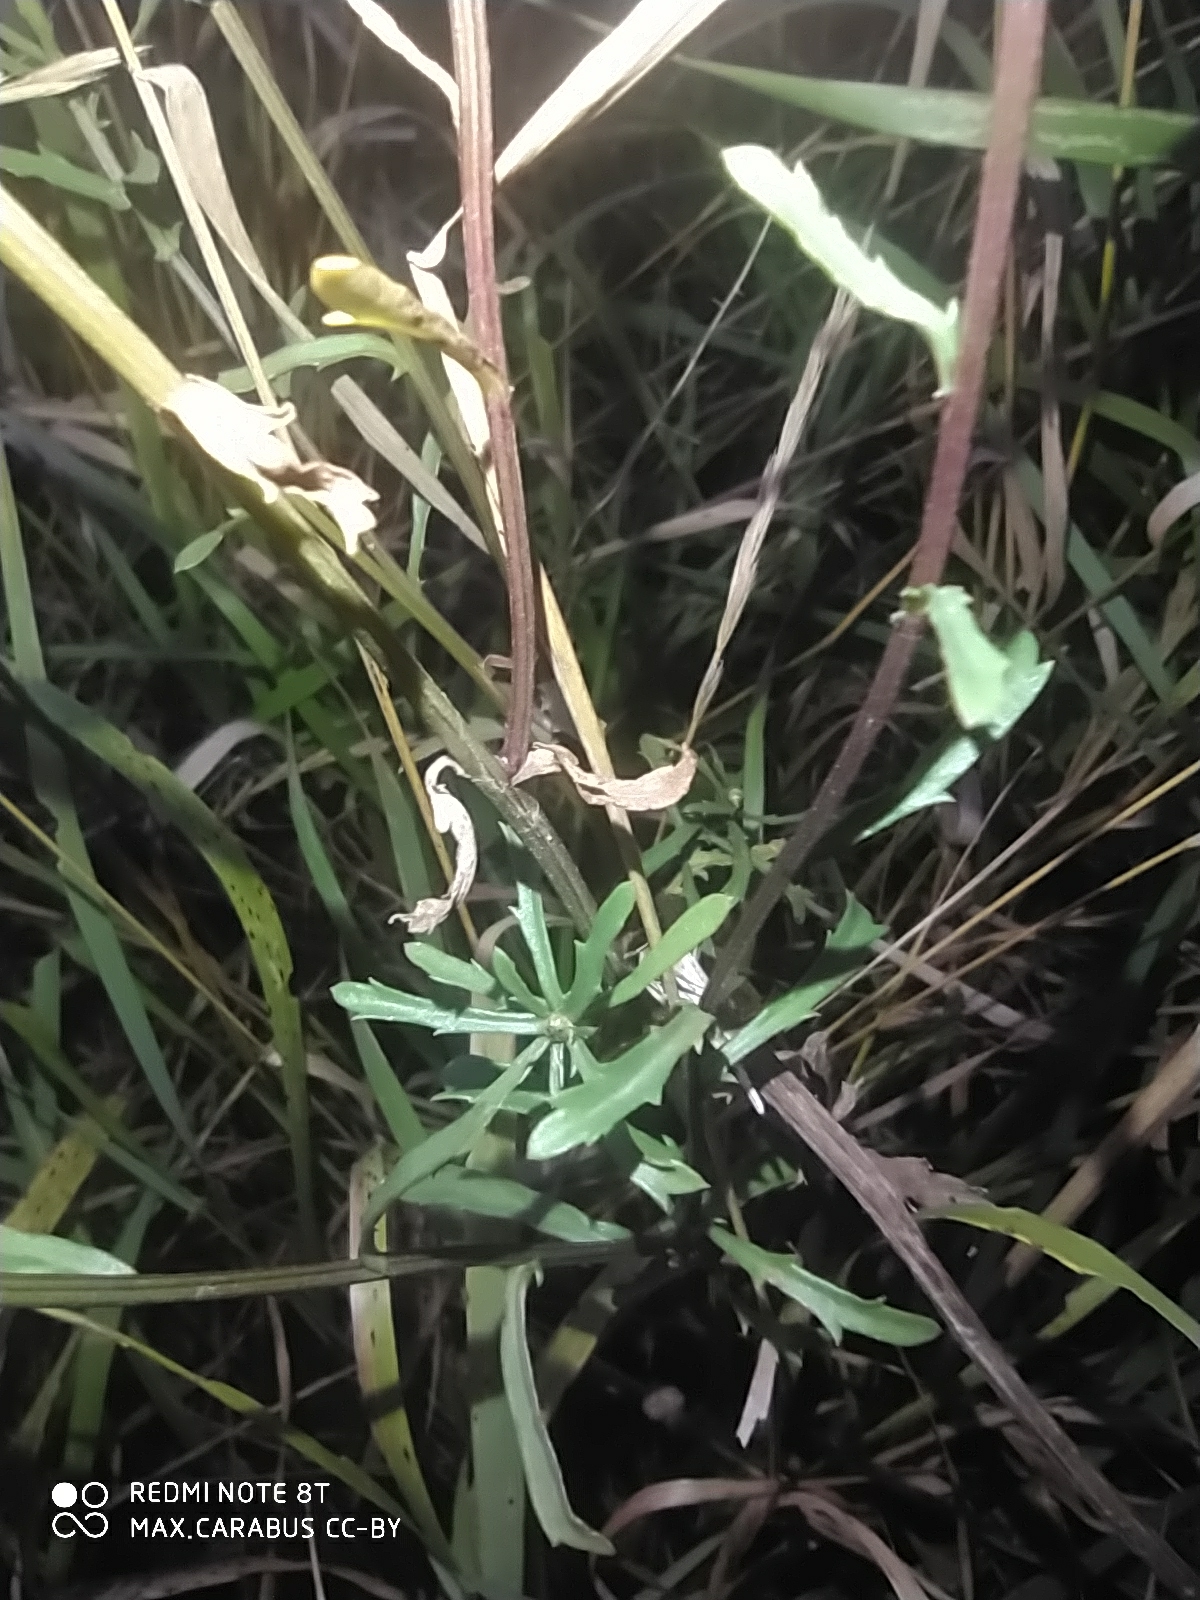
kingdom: Plantae
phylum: Tracheophyta
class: Magnoliopsida
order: Asterales
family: Asteraceae
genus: Leucanthemum
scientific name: Leucanthemum vulgare
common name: Oxeye daisy
